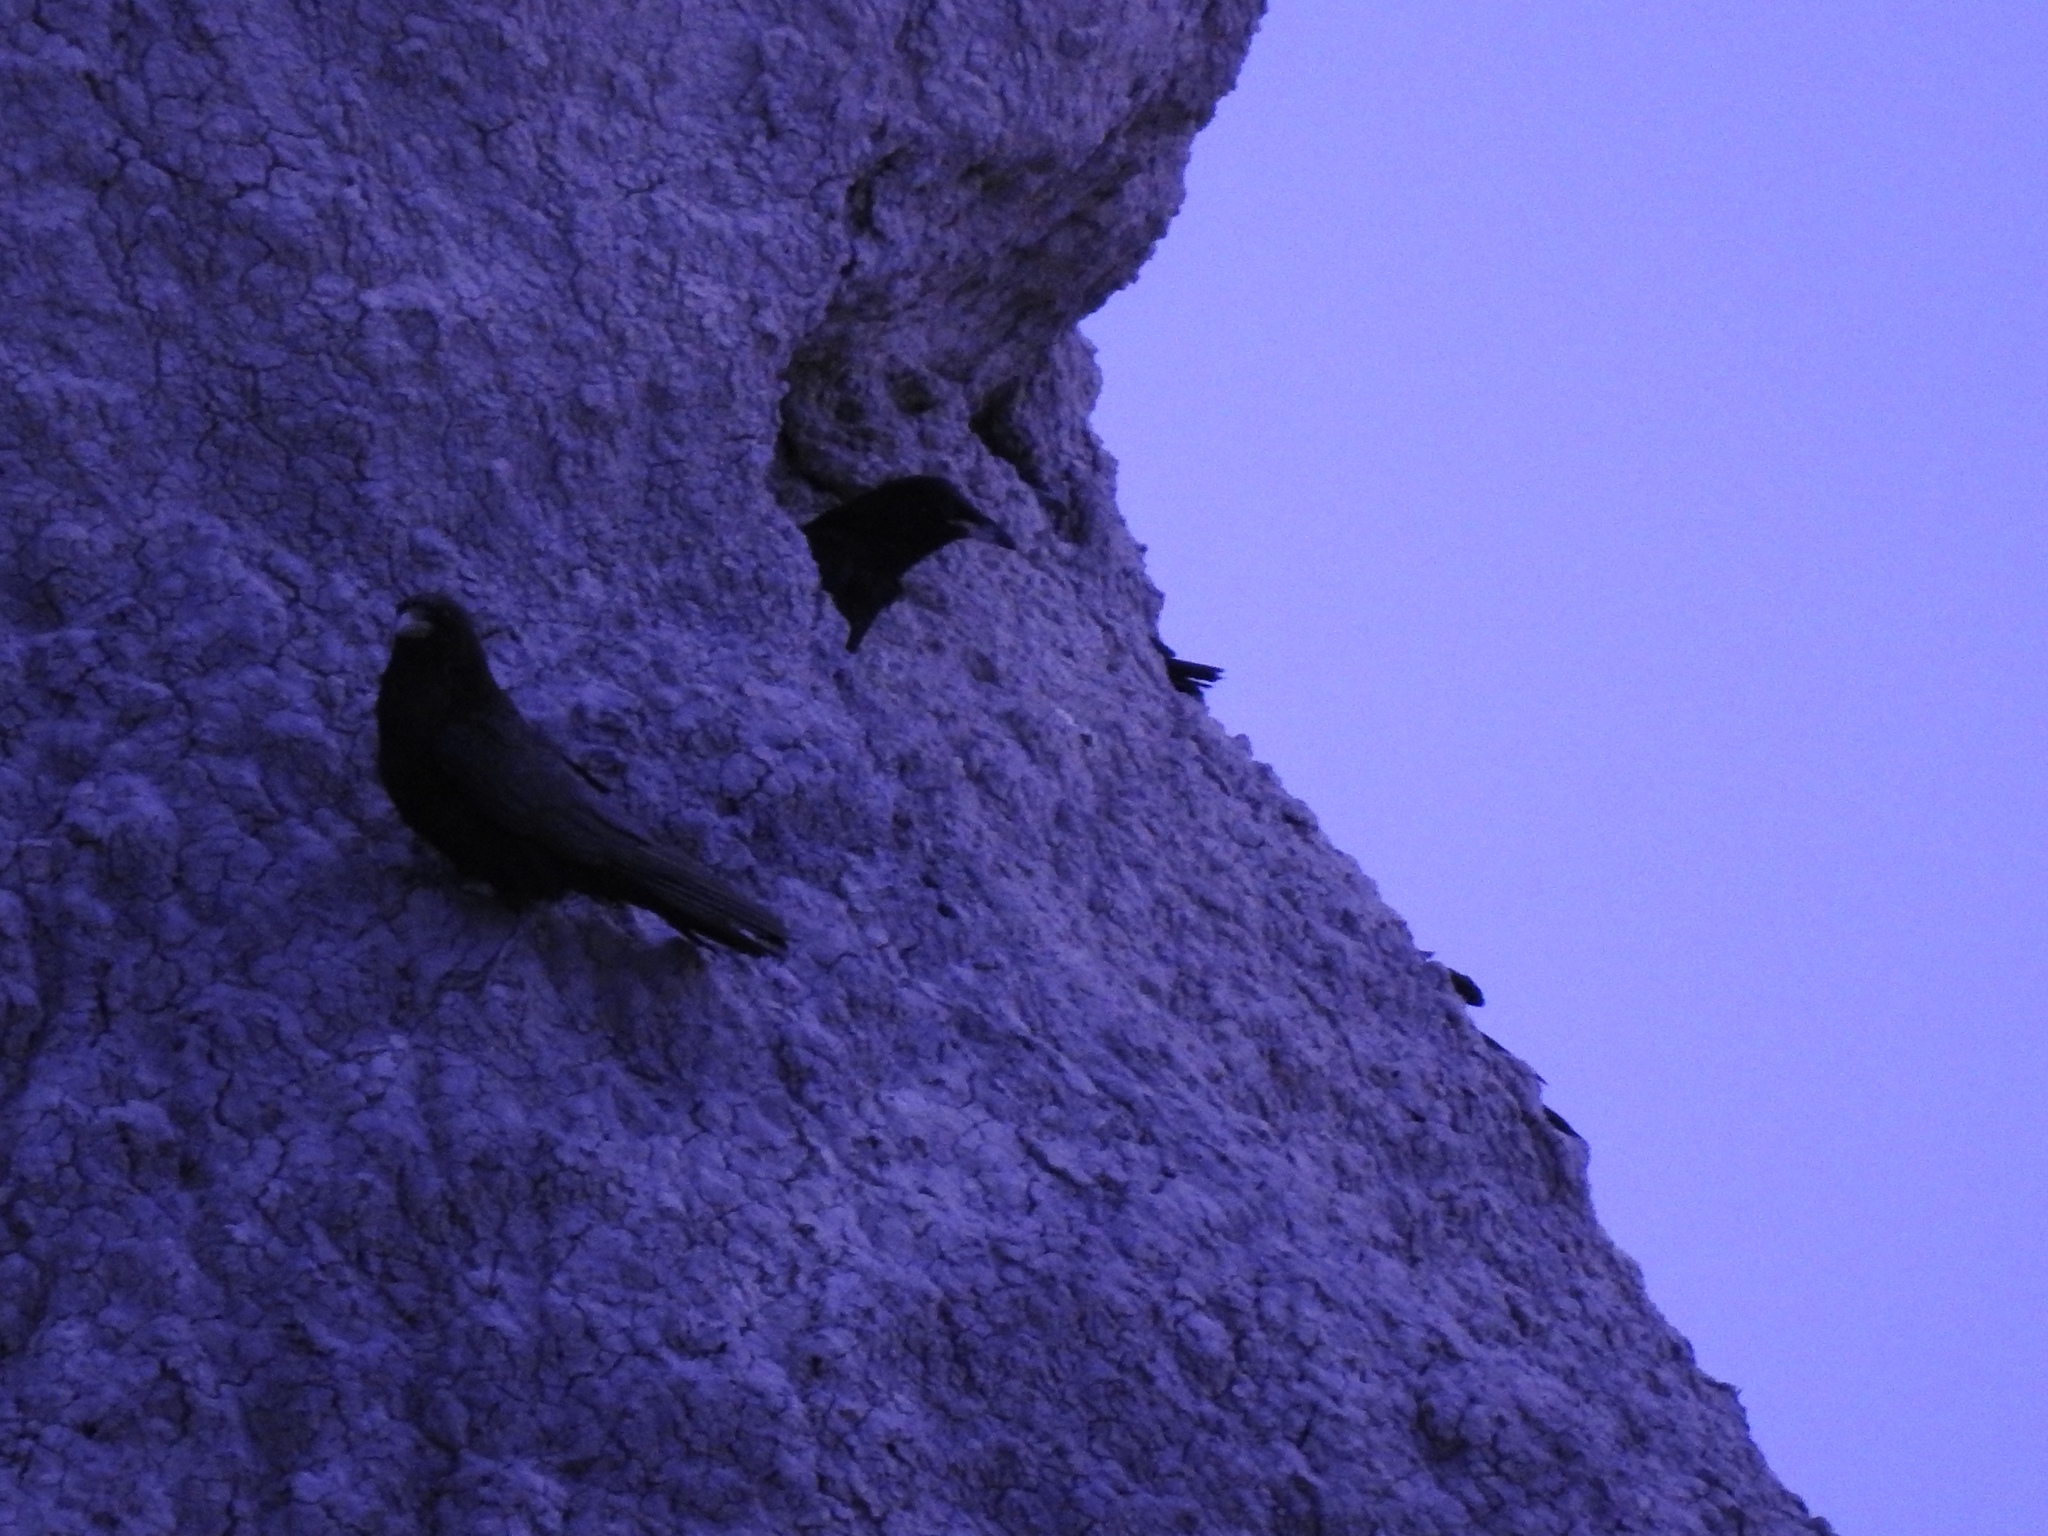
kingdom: Animalia
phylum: Chordata
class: Aves
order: Passeriformes
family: Corvidae
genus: Corvus
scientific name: Corvus corax
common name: Common raven
